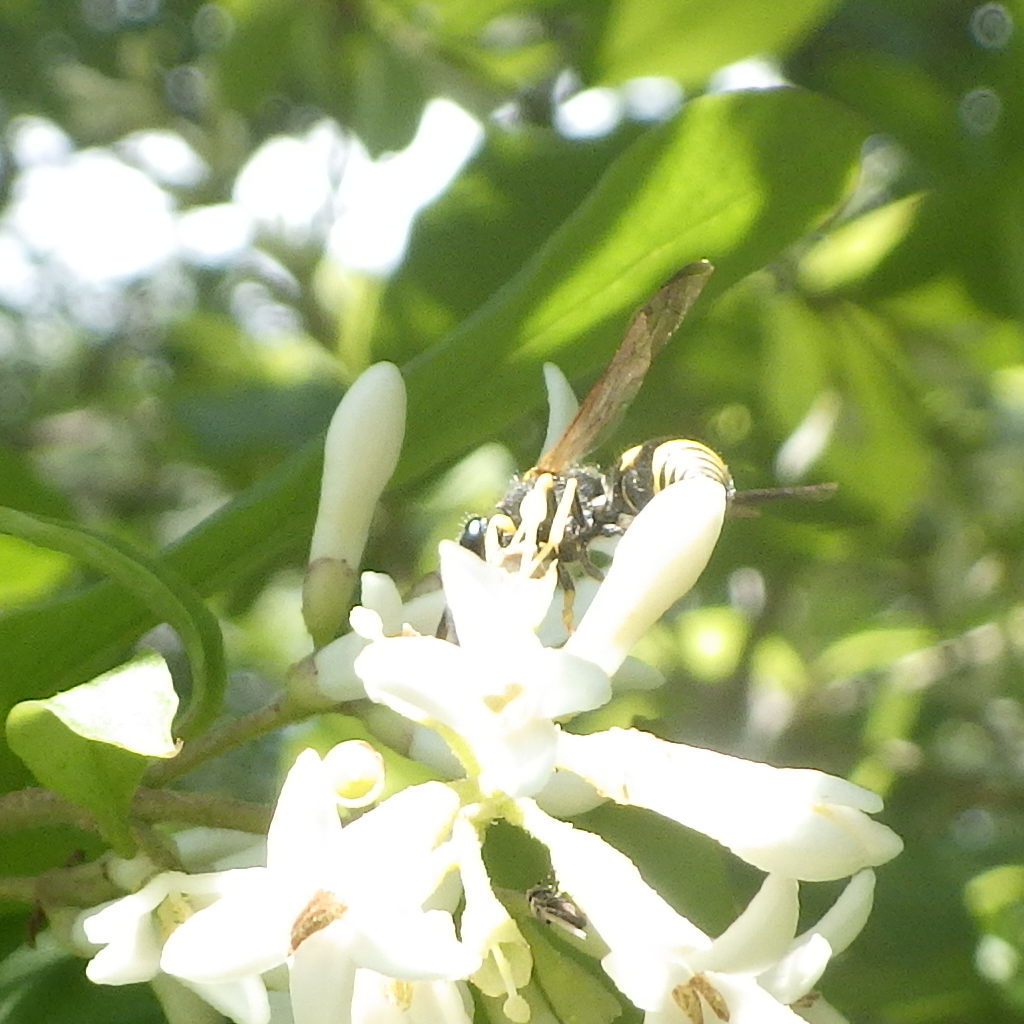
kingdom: Animalia
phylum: Arthropoda
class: Insecta
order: Hymenoptera
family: Vespidae
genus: Ancistrocerus
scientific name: Ancistrocerus
